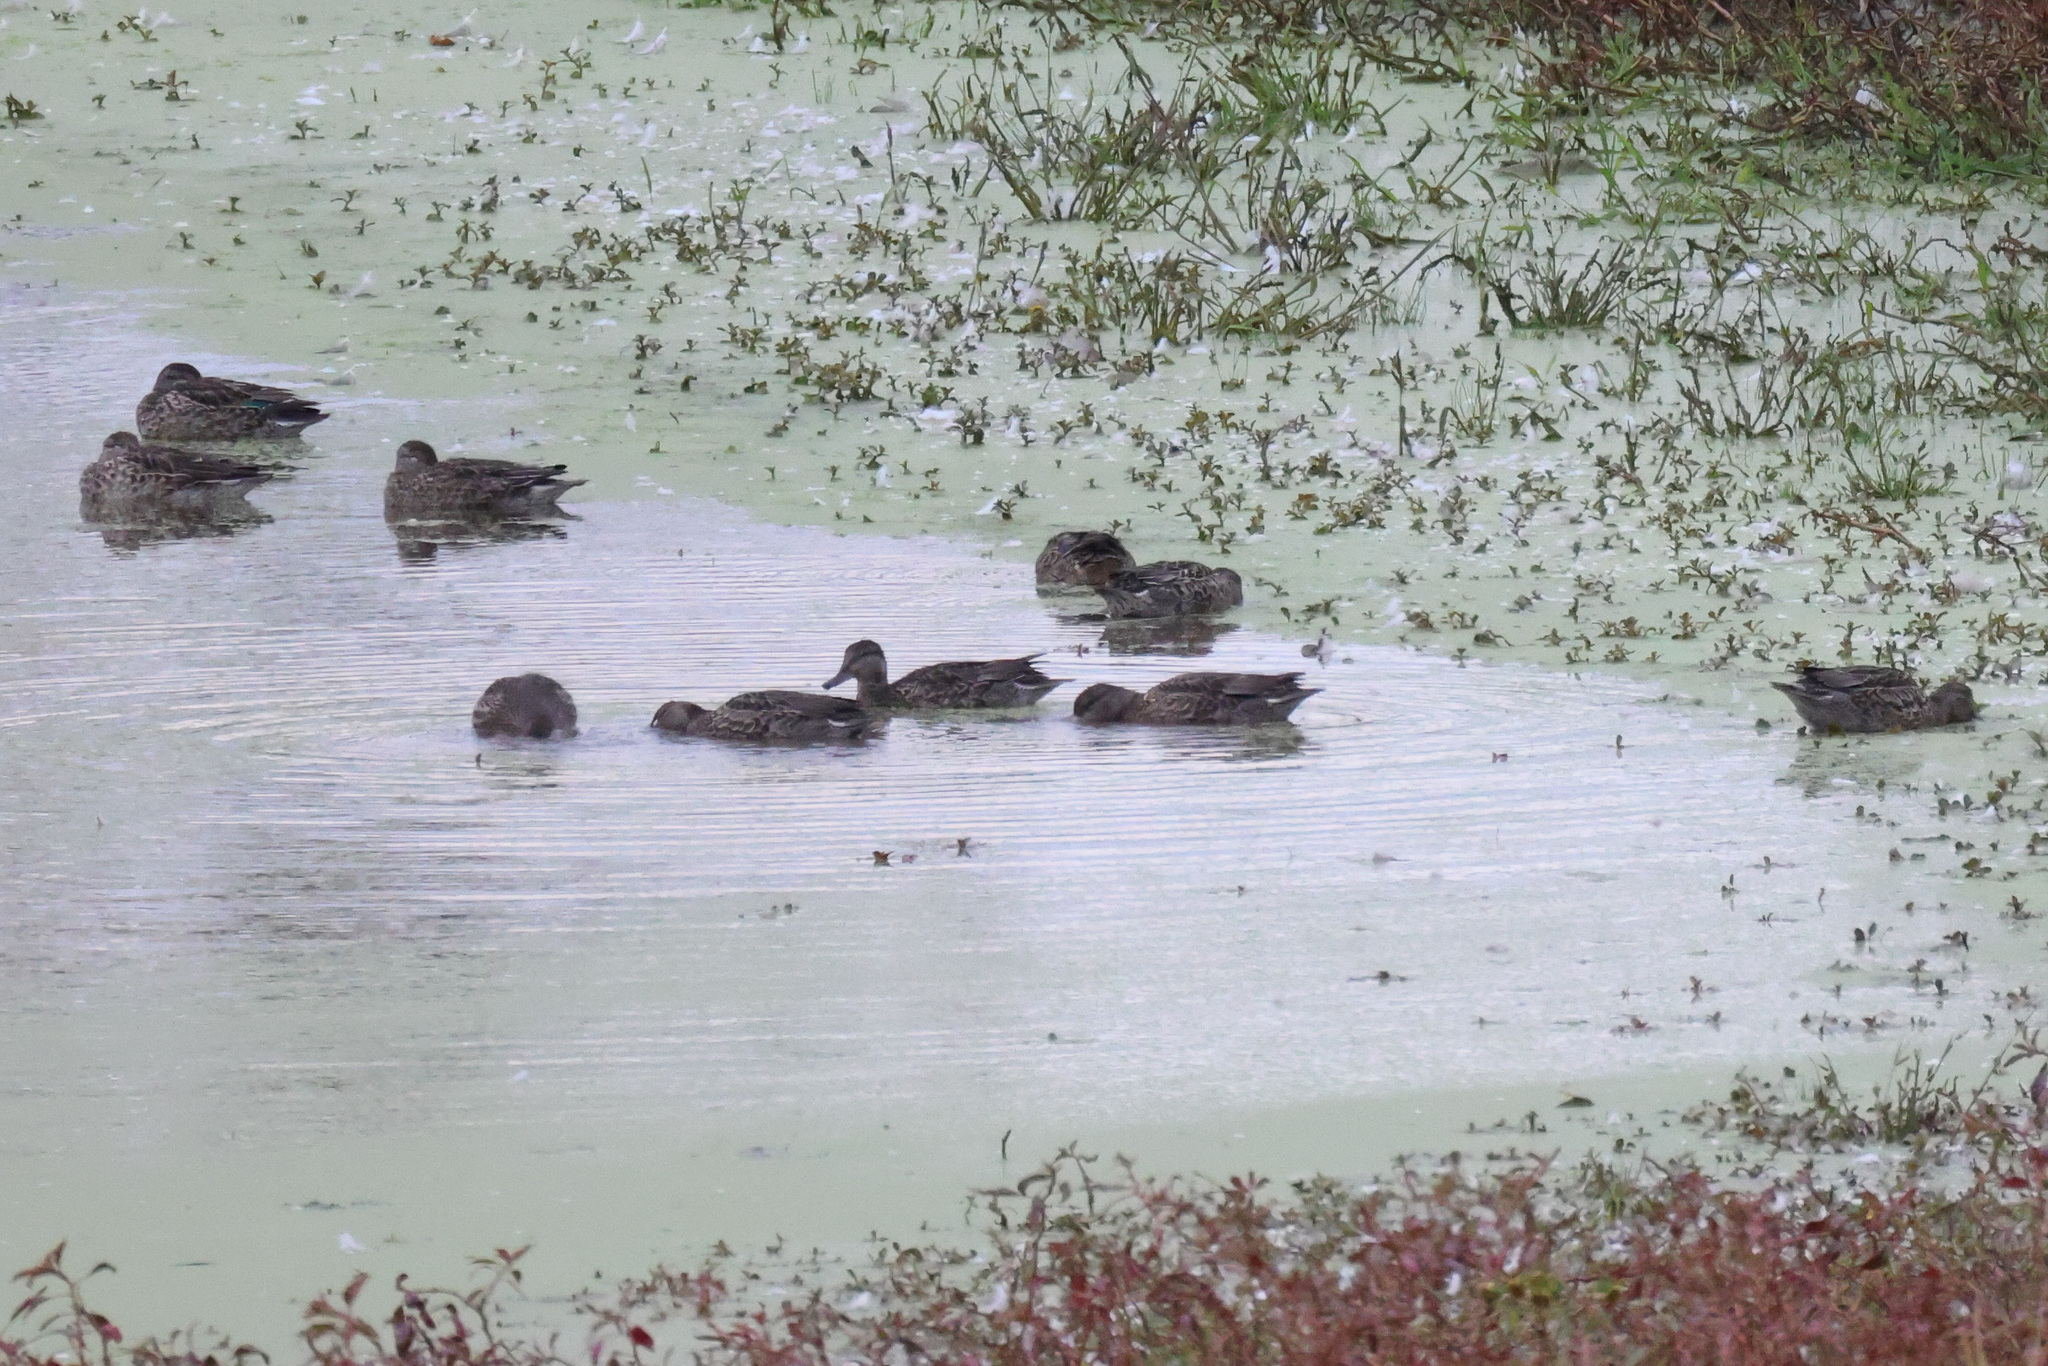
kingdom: Animalia
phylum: Chordata
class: Aves
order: Anseriformes
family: Anatidae
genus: Anas
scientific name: Anas crecca
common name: Eurasian teal
